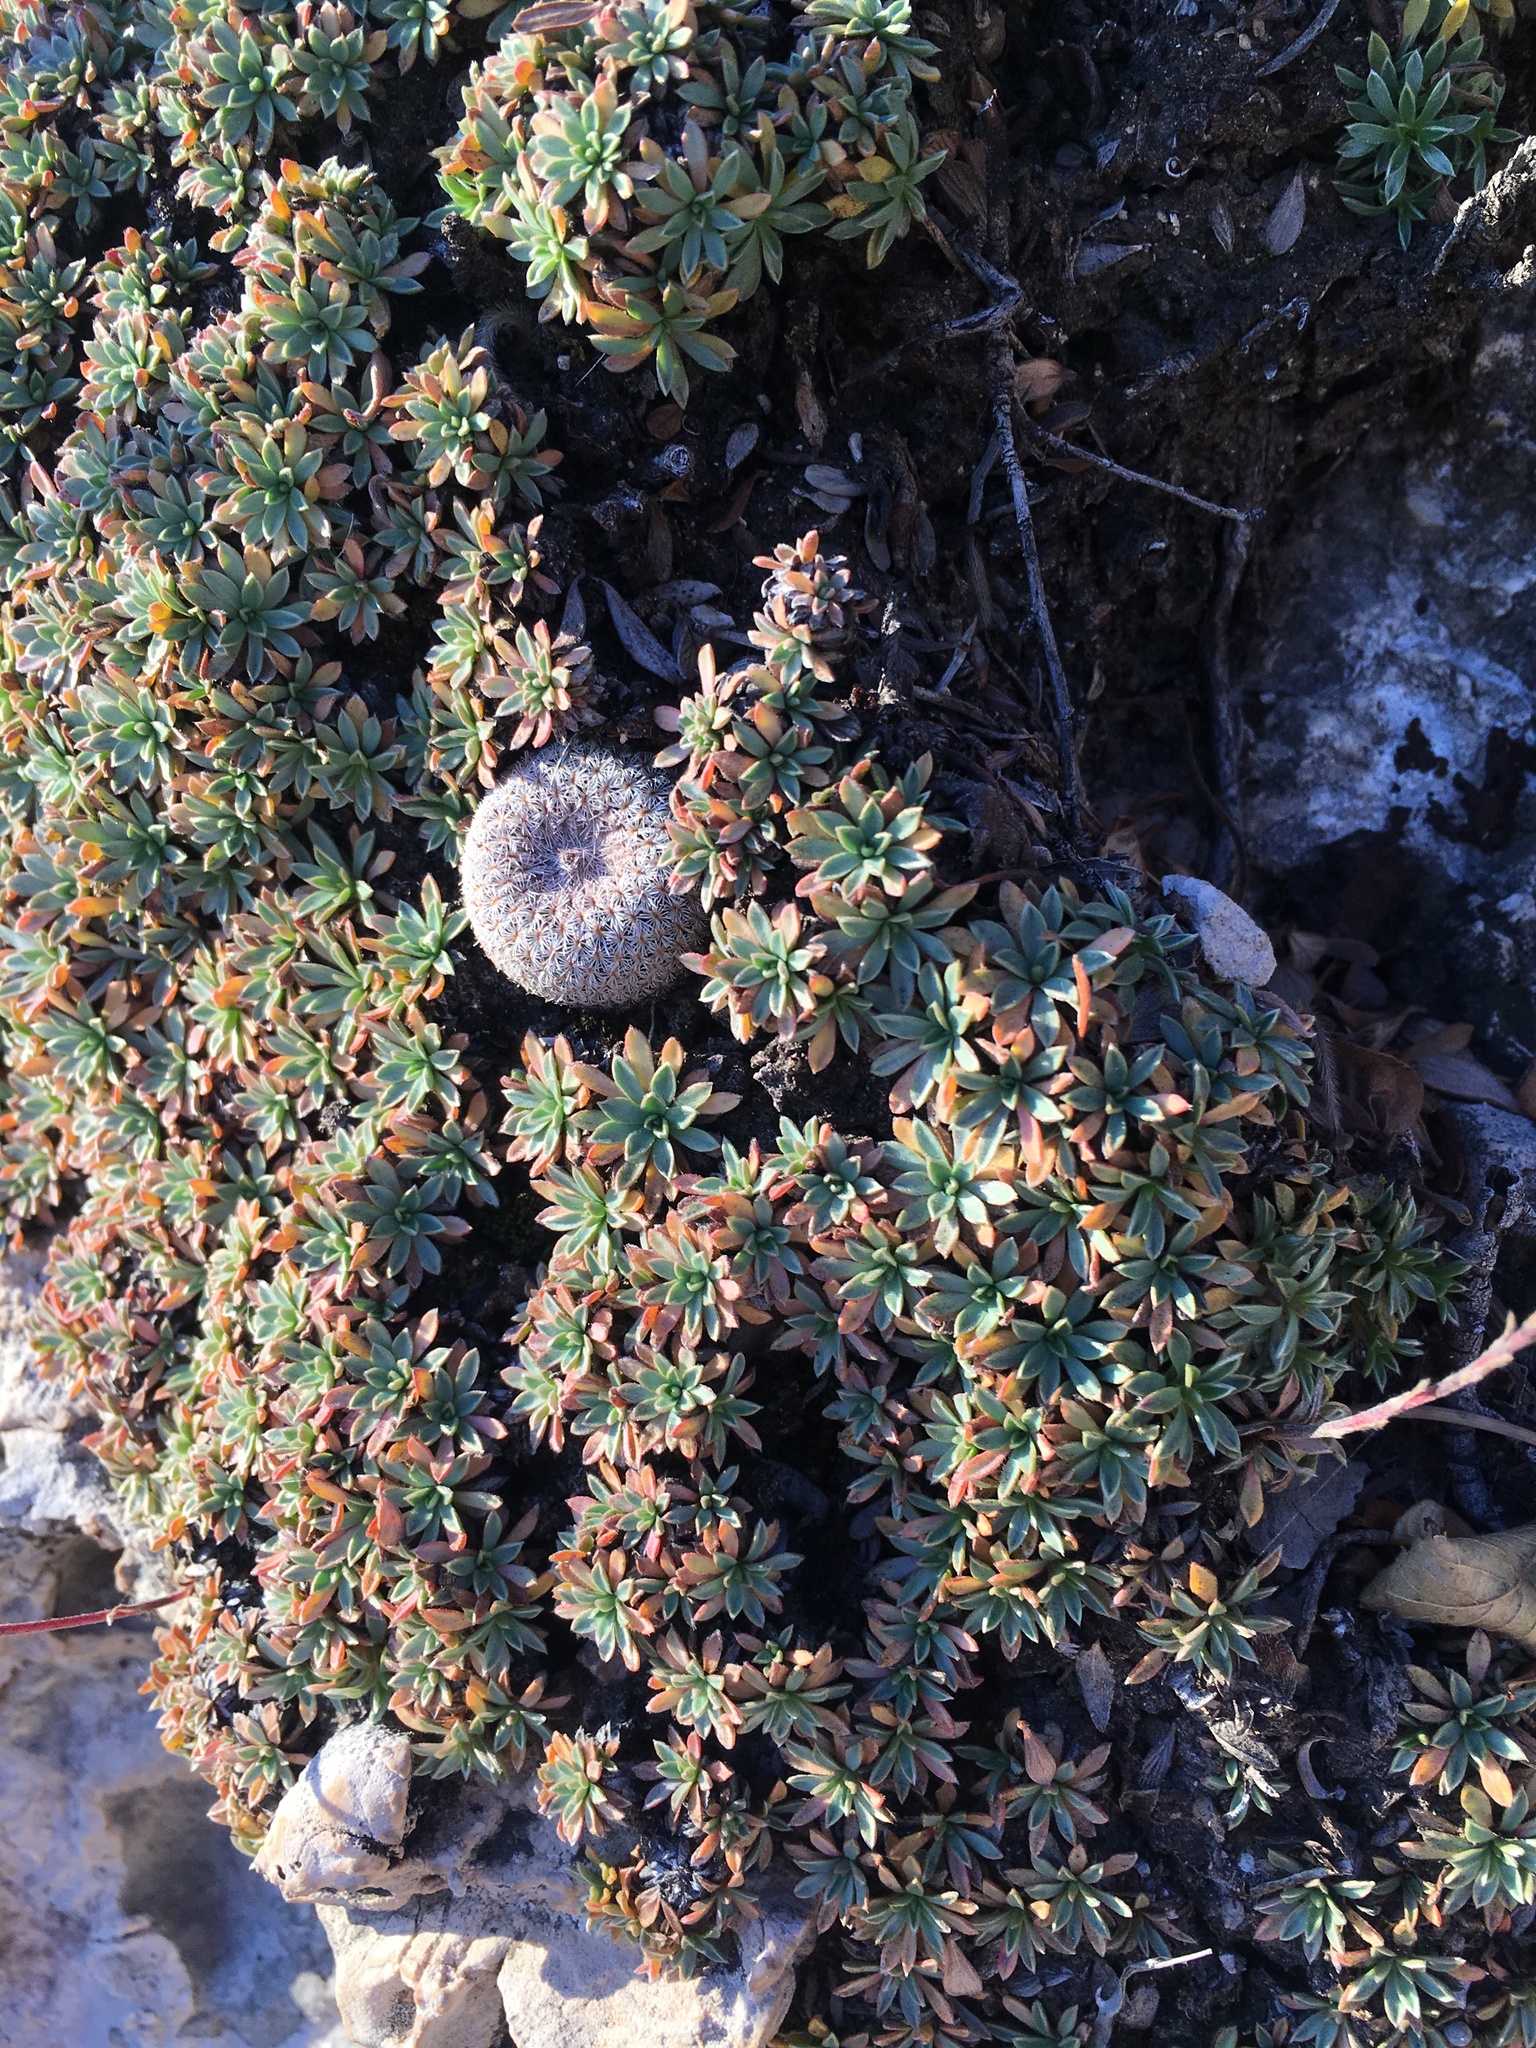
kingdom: Plantae
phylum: Tracheophyta
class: Magnoliopsida
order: Caryophyllales
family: Cactaceae
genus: Epithelantha
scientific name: Epithelantha micromeris
